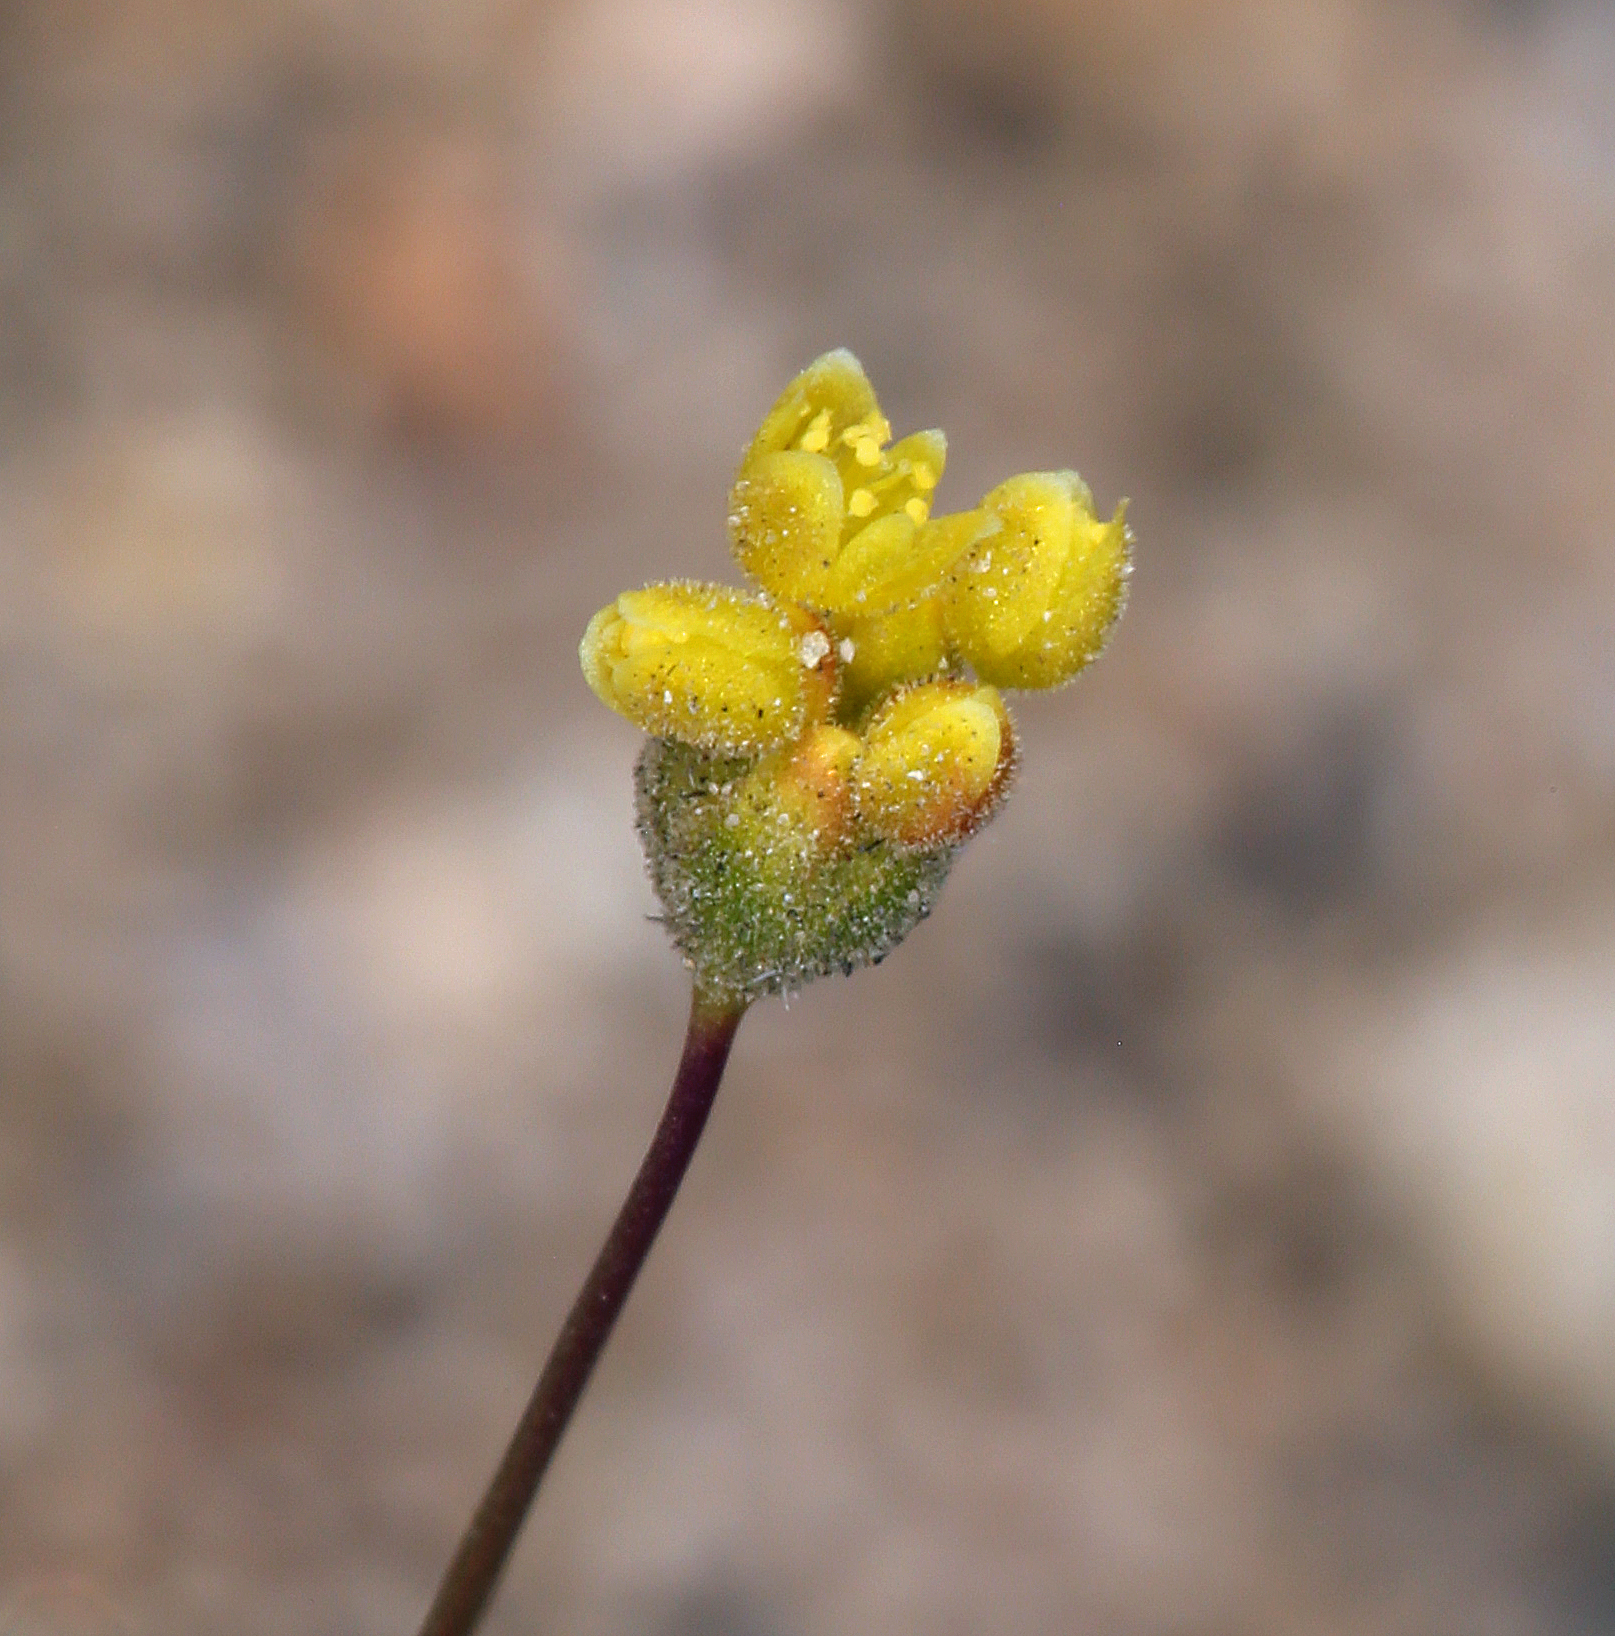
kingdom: Plantae
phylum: Tracheophyta
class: Magnoliopsida
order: Caryophyllales
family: Polygonaceae
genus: Eriogonum
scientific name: Eriogonum pusillum
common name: Yellow turbans
